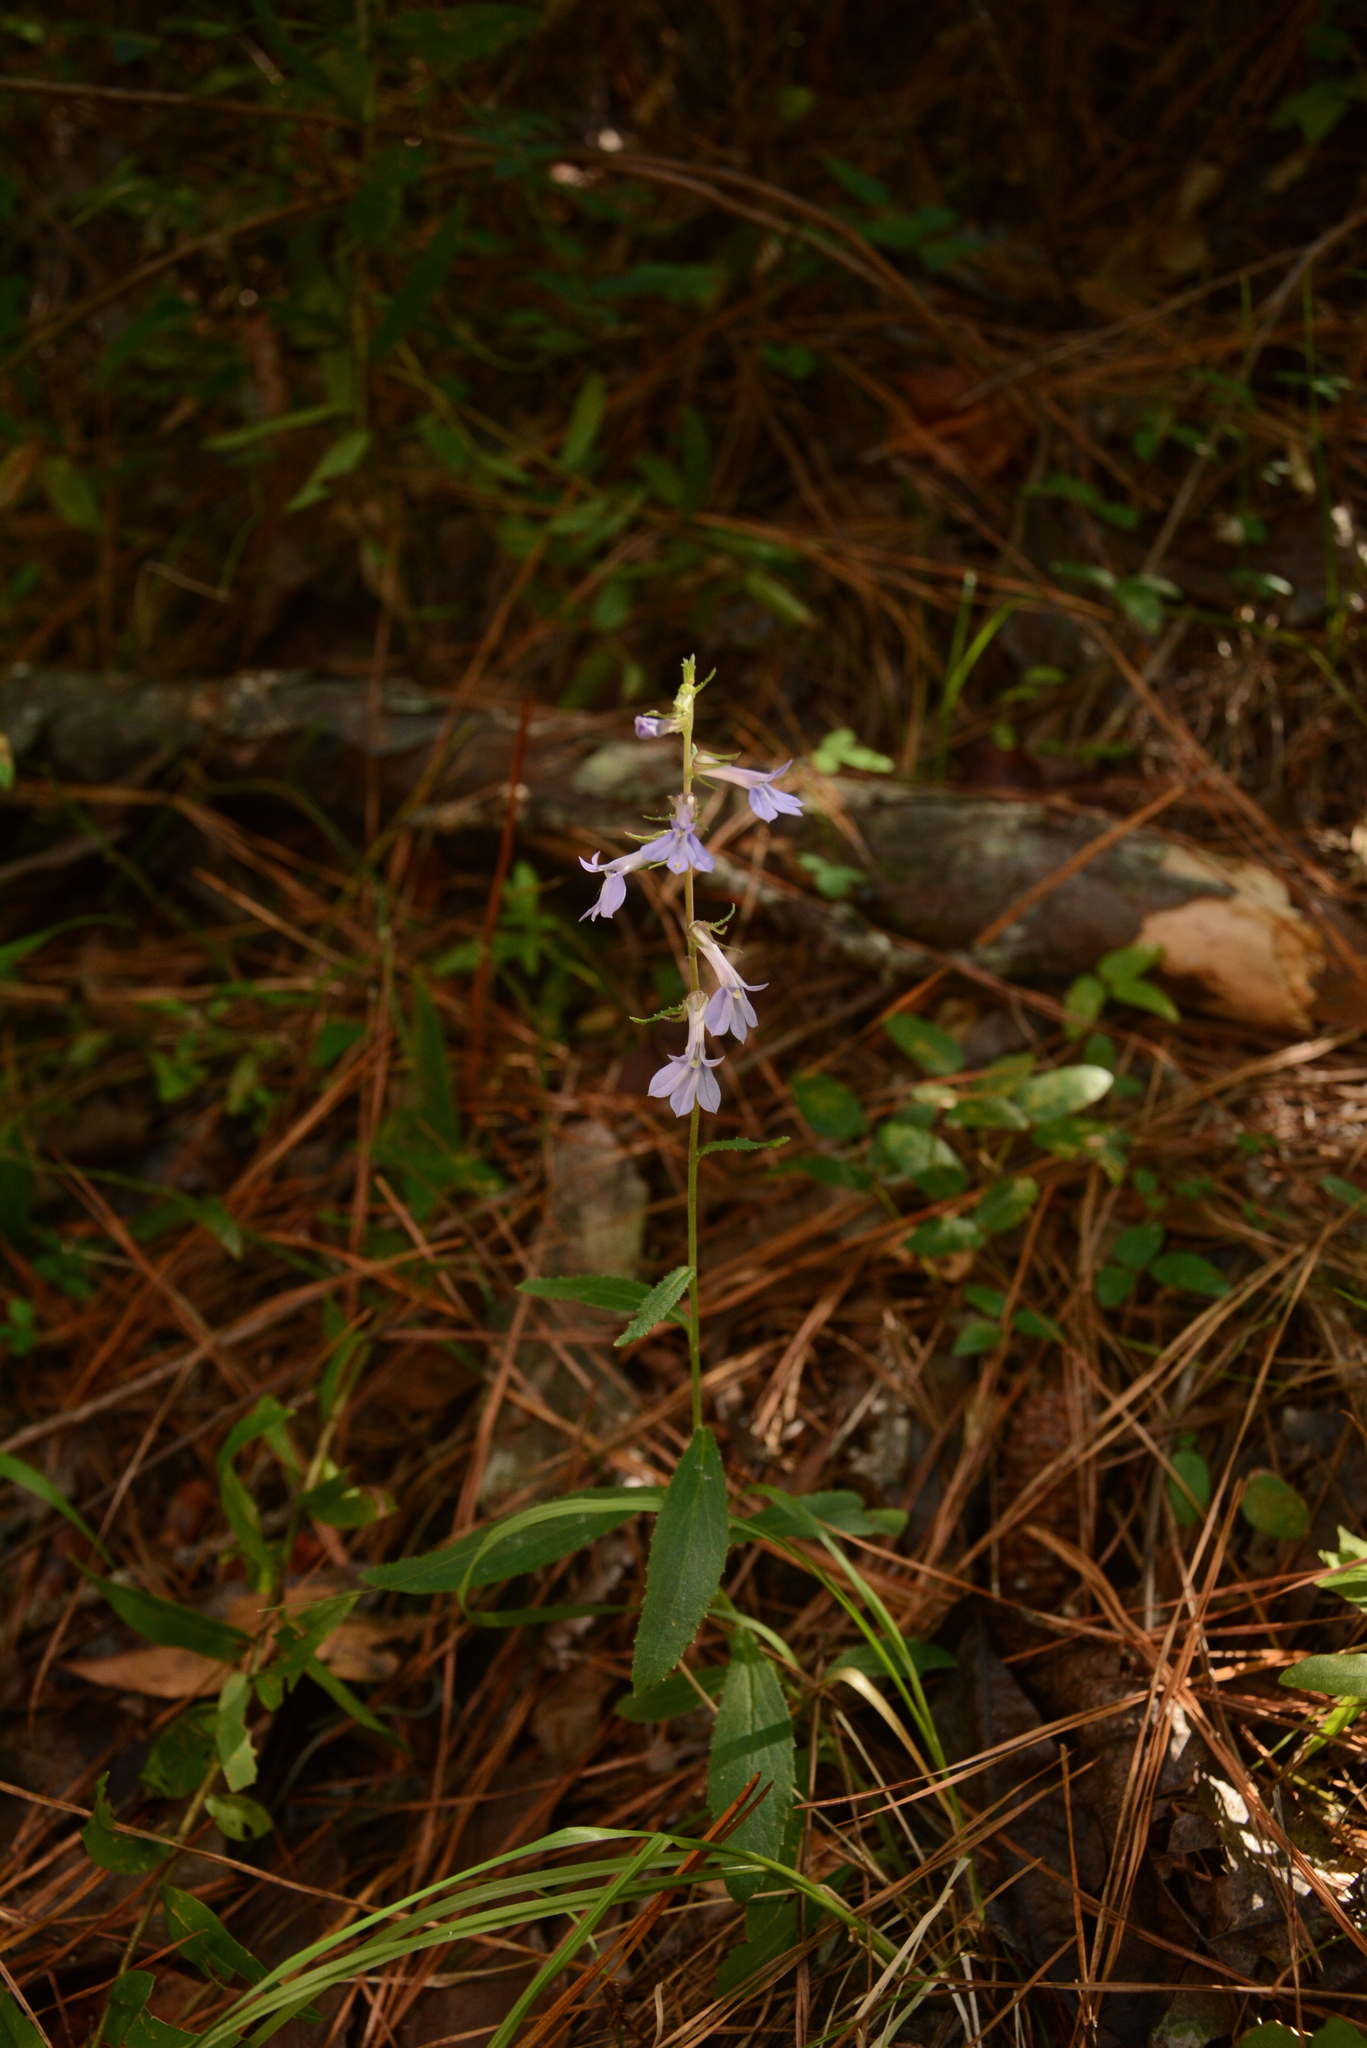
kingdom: Plantae
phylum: Tracheophyta
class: Magnoliopsida
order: Asterales
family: Campanulaceae
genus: Lobelia
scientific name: Lobelia puberula
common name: Purple dewdrop
